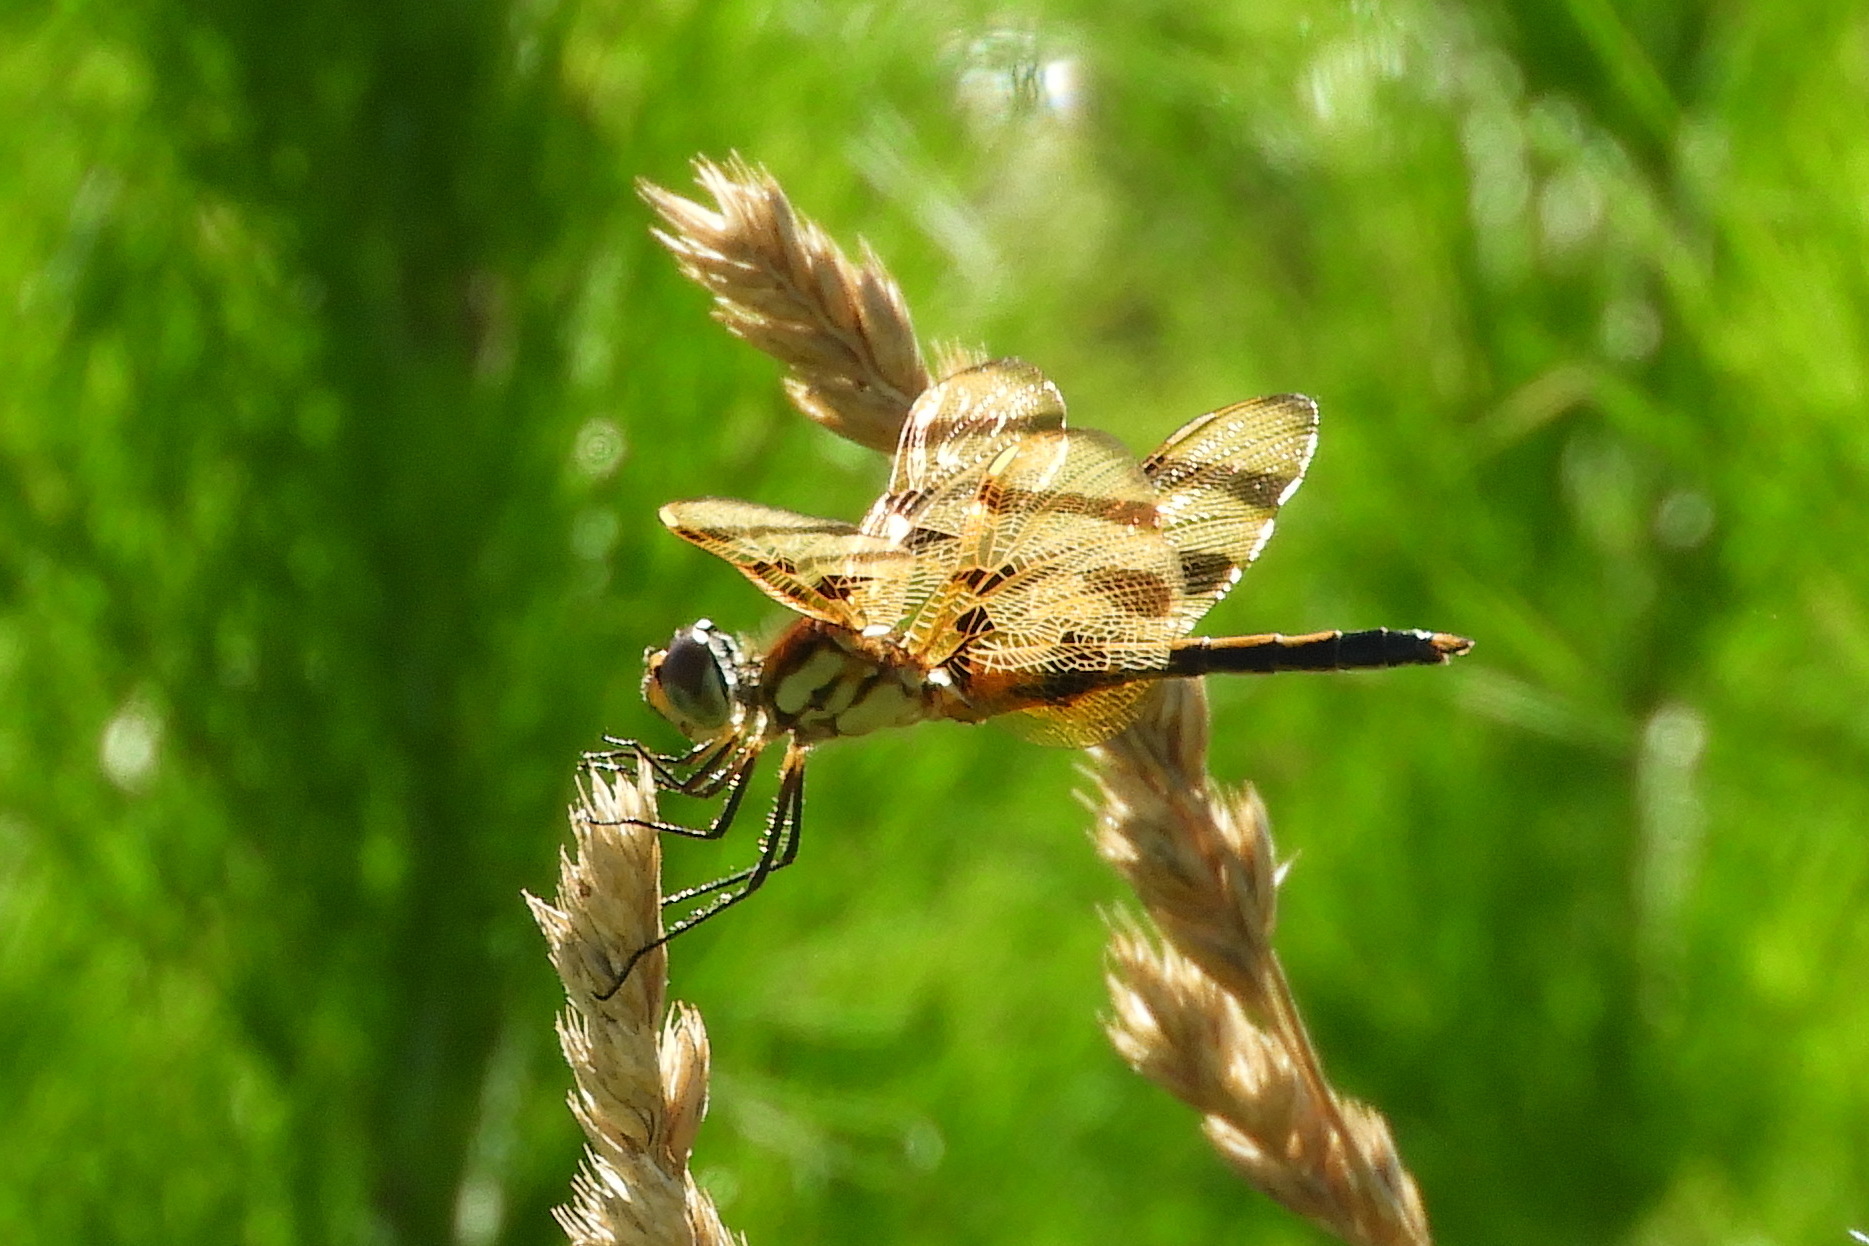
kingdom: Animalia
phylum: Arthropoda
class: Insecta
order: Odonata
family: Libellulidae
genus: Celithemis
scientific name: Celithemis eponina
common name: Halloween pennant
